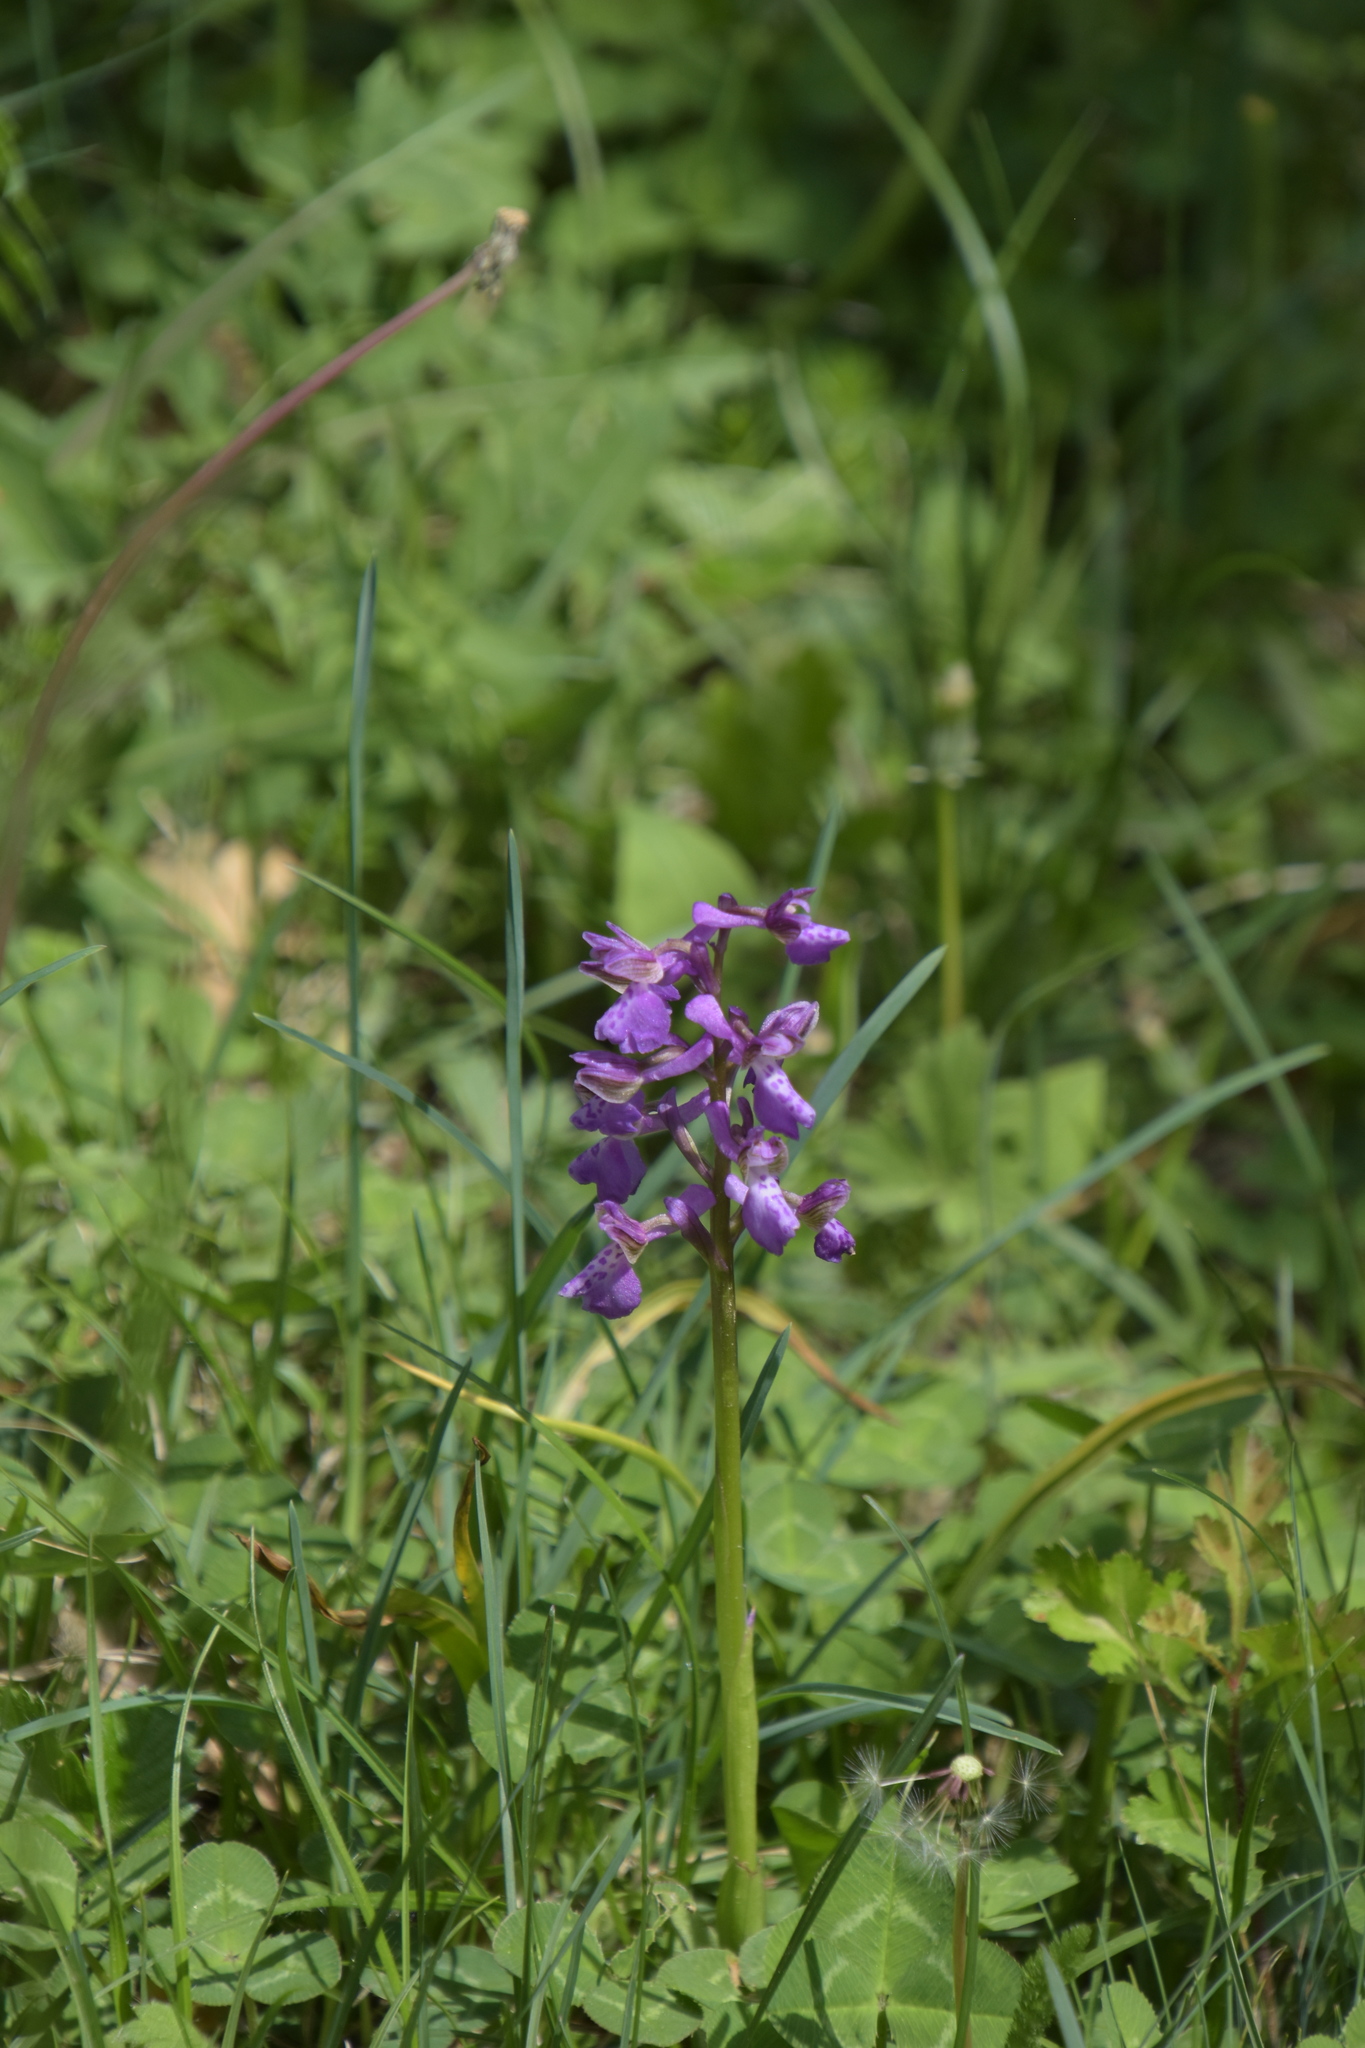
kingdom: Plantae
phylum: Tracheophyta
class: Liliopsida
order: Asparagales
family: Orchidaceae
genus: Anacamptis
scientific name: Anacamptis morio
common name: Green-winged orchid
